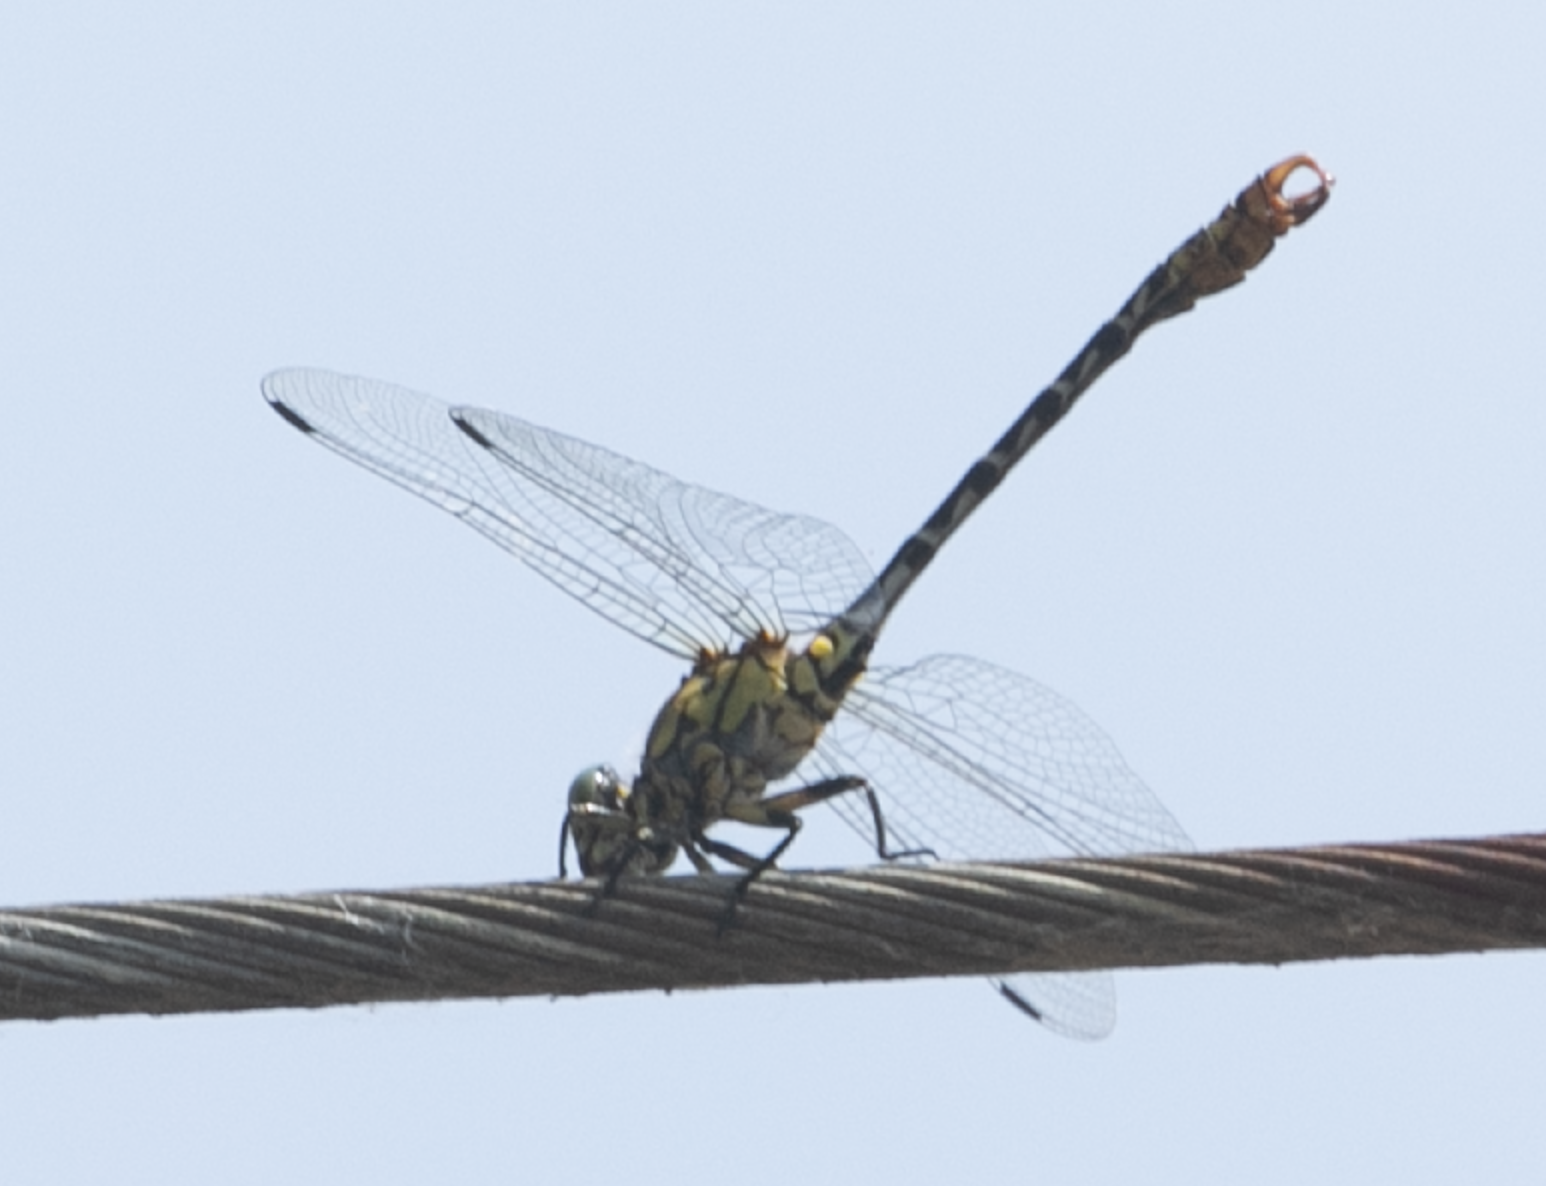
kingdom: Animalia
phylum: Arthropoda
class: Insecta
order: Odonata
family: Gomphidae
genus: Onychogomphus
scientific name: Onychogomphus forcipatus
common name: Small pincertail
